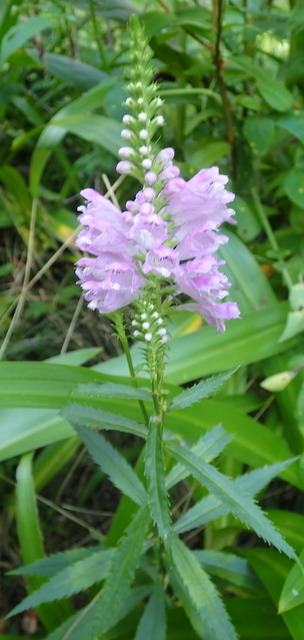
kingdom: Plantae
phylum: Tracheophyta
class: Magnoliopsida
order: Lamiales
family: Lamiaceae
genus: Physostegia
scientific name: Physostegia virginiana
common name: Obedient-plant
